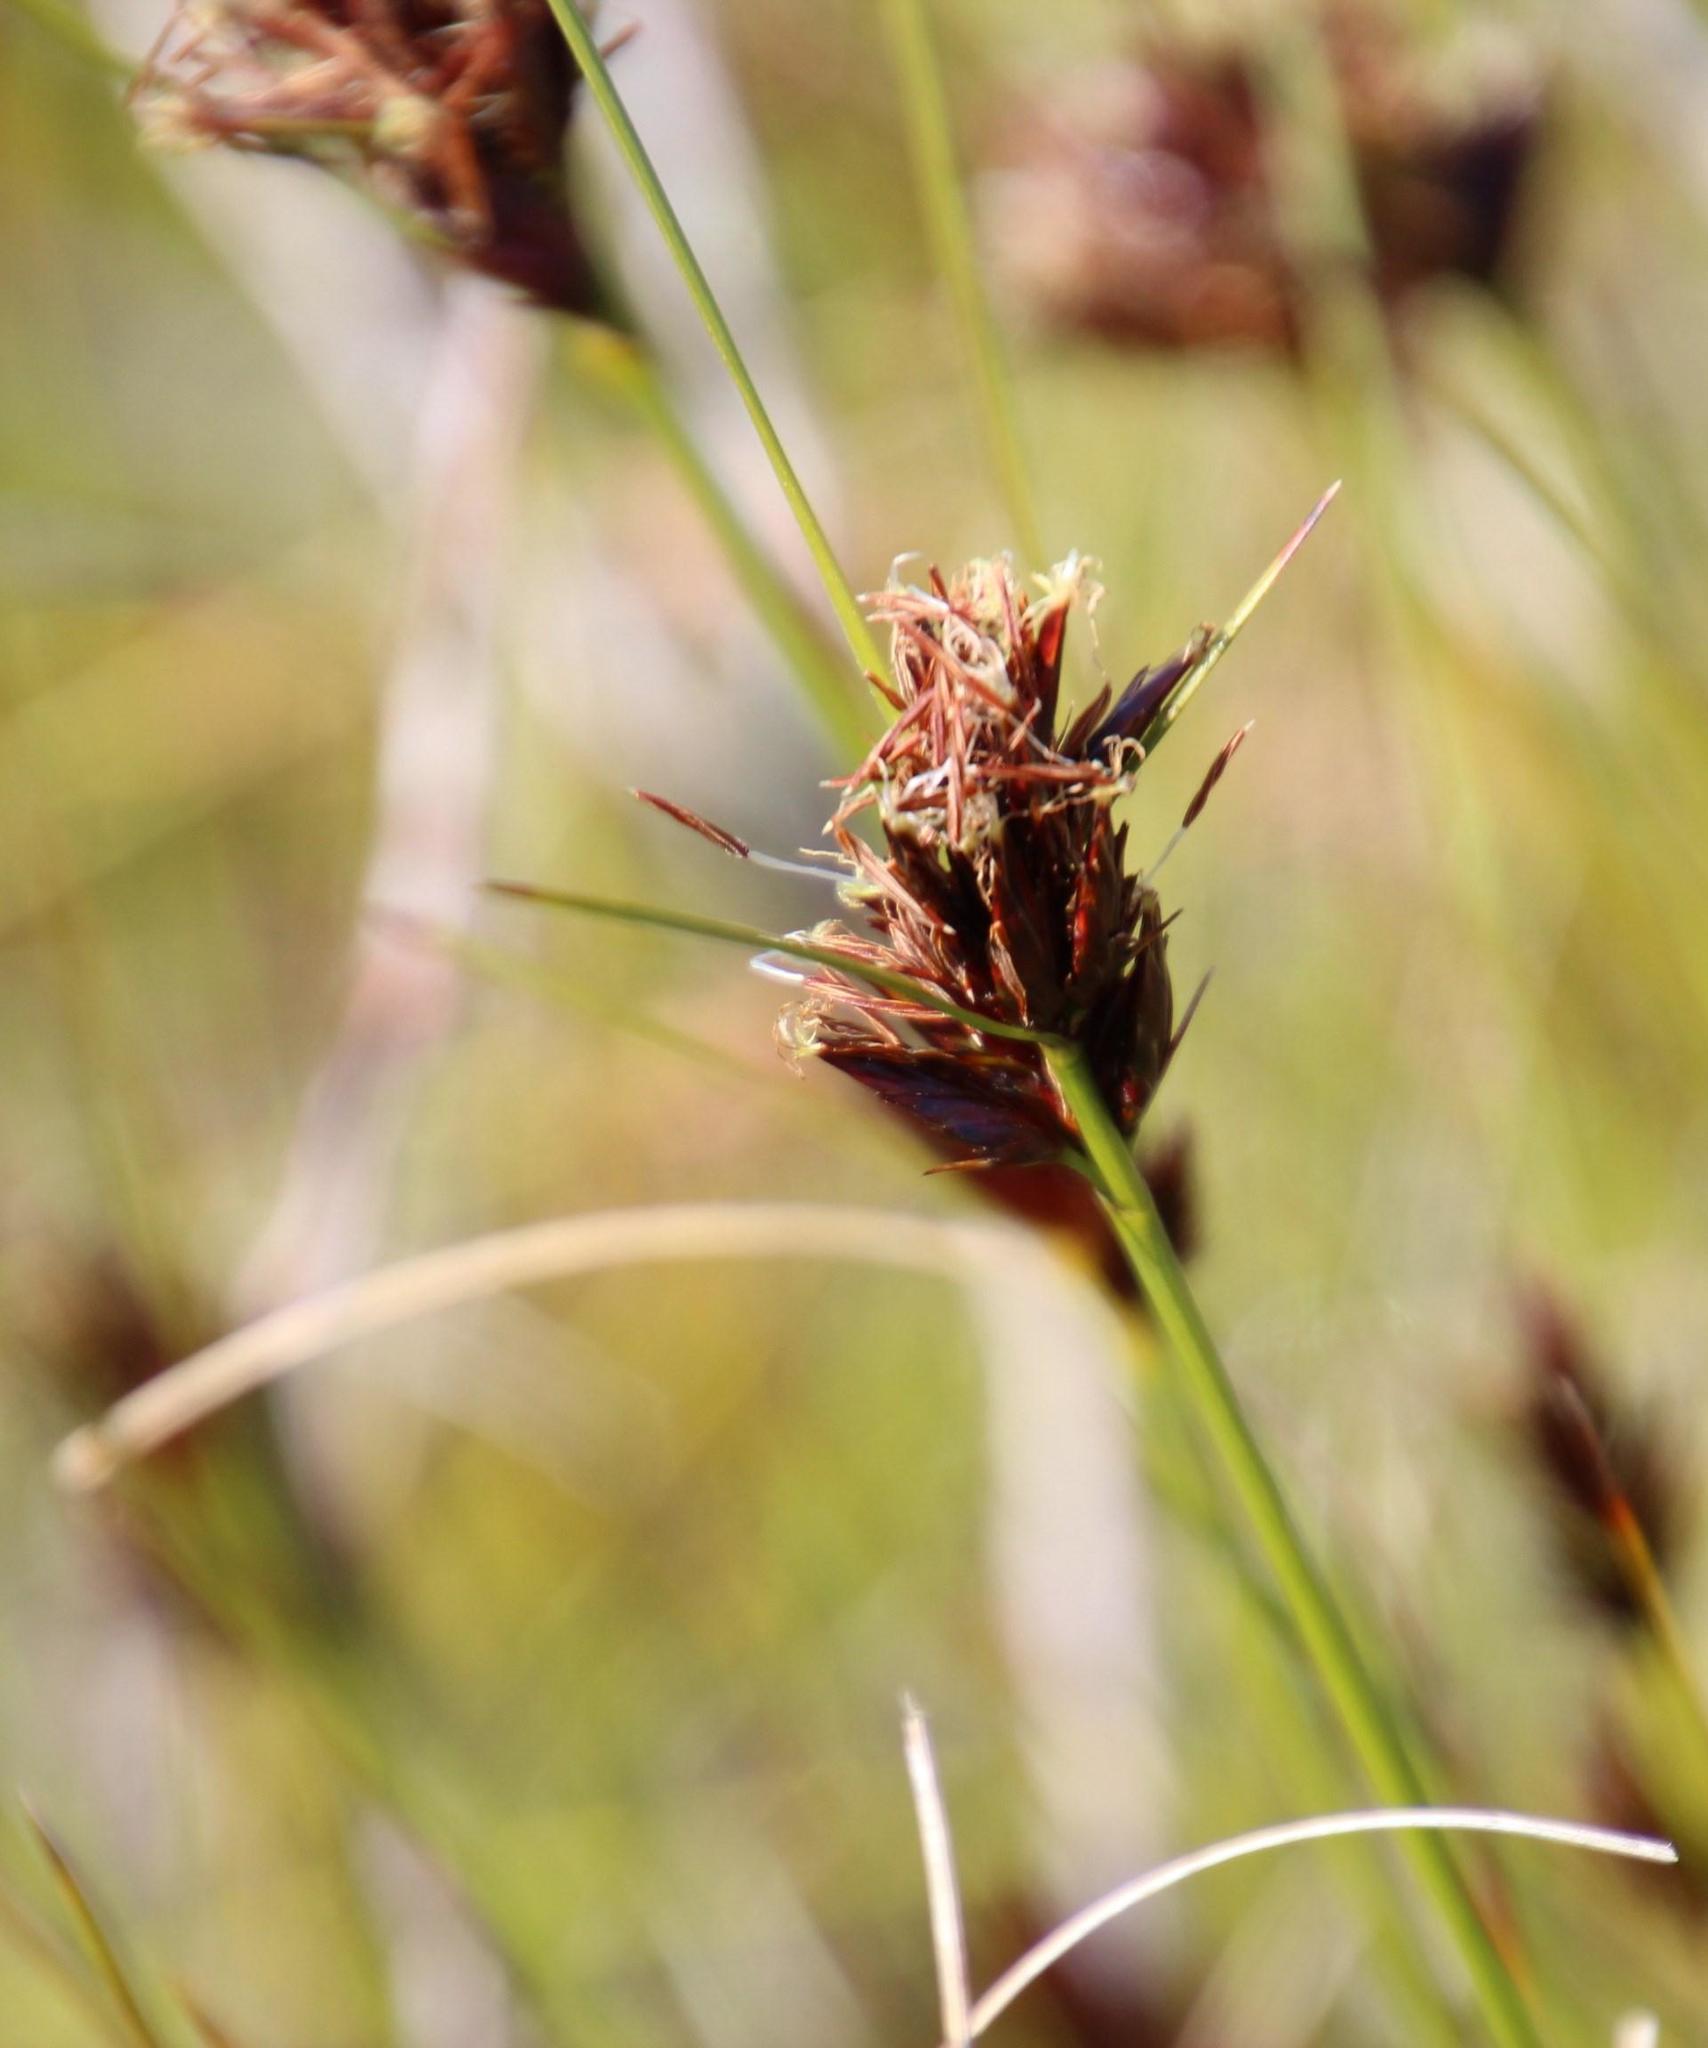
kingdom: Plantae
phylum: Tracheophyta
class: Liliopsida
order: Poales
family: Cyperaceae
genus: Schoenus
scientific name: Schoenus compar
